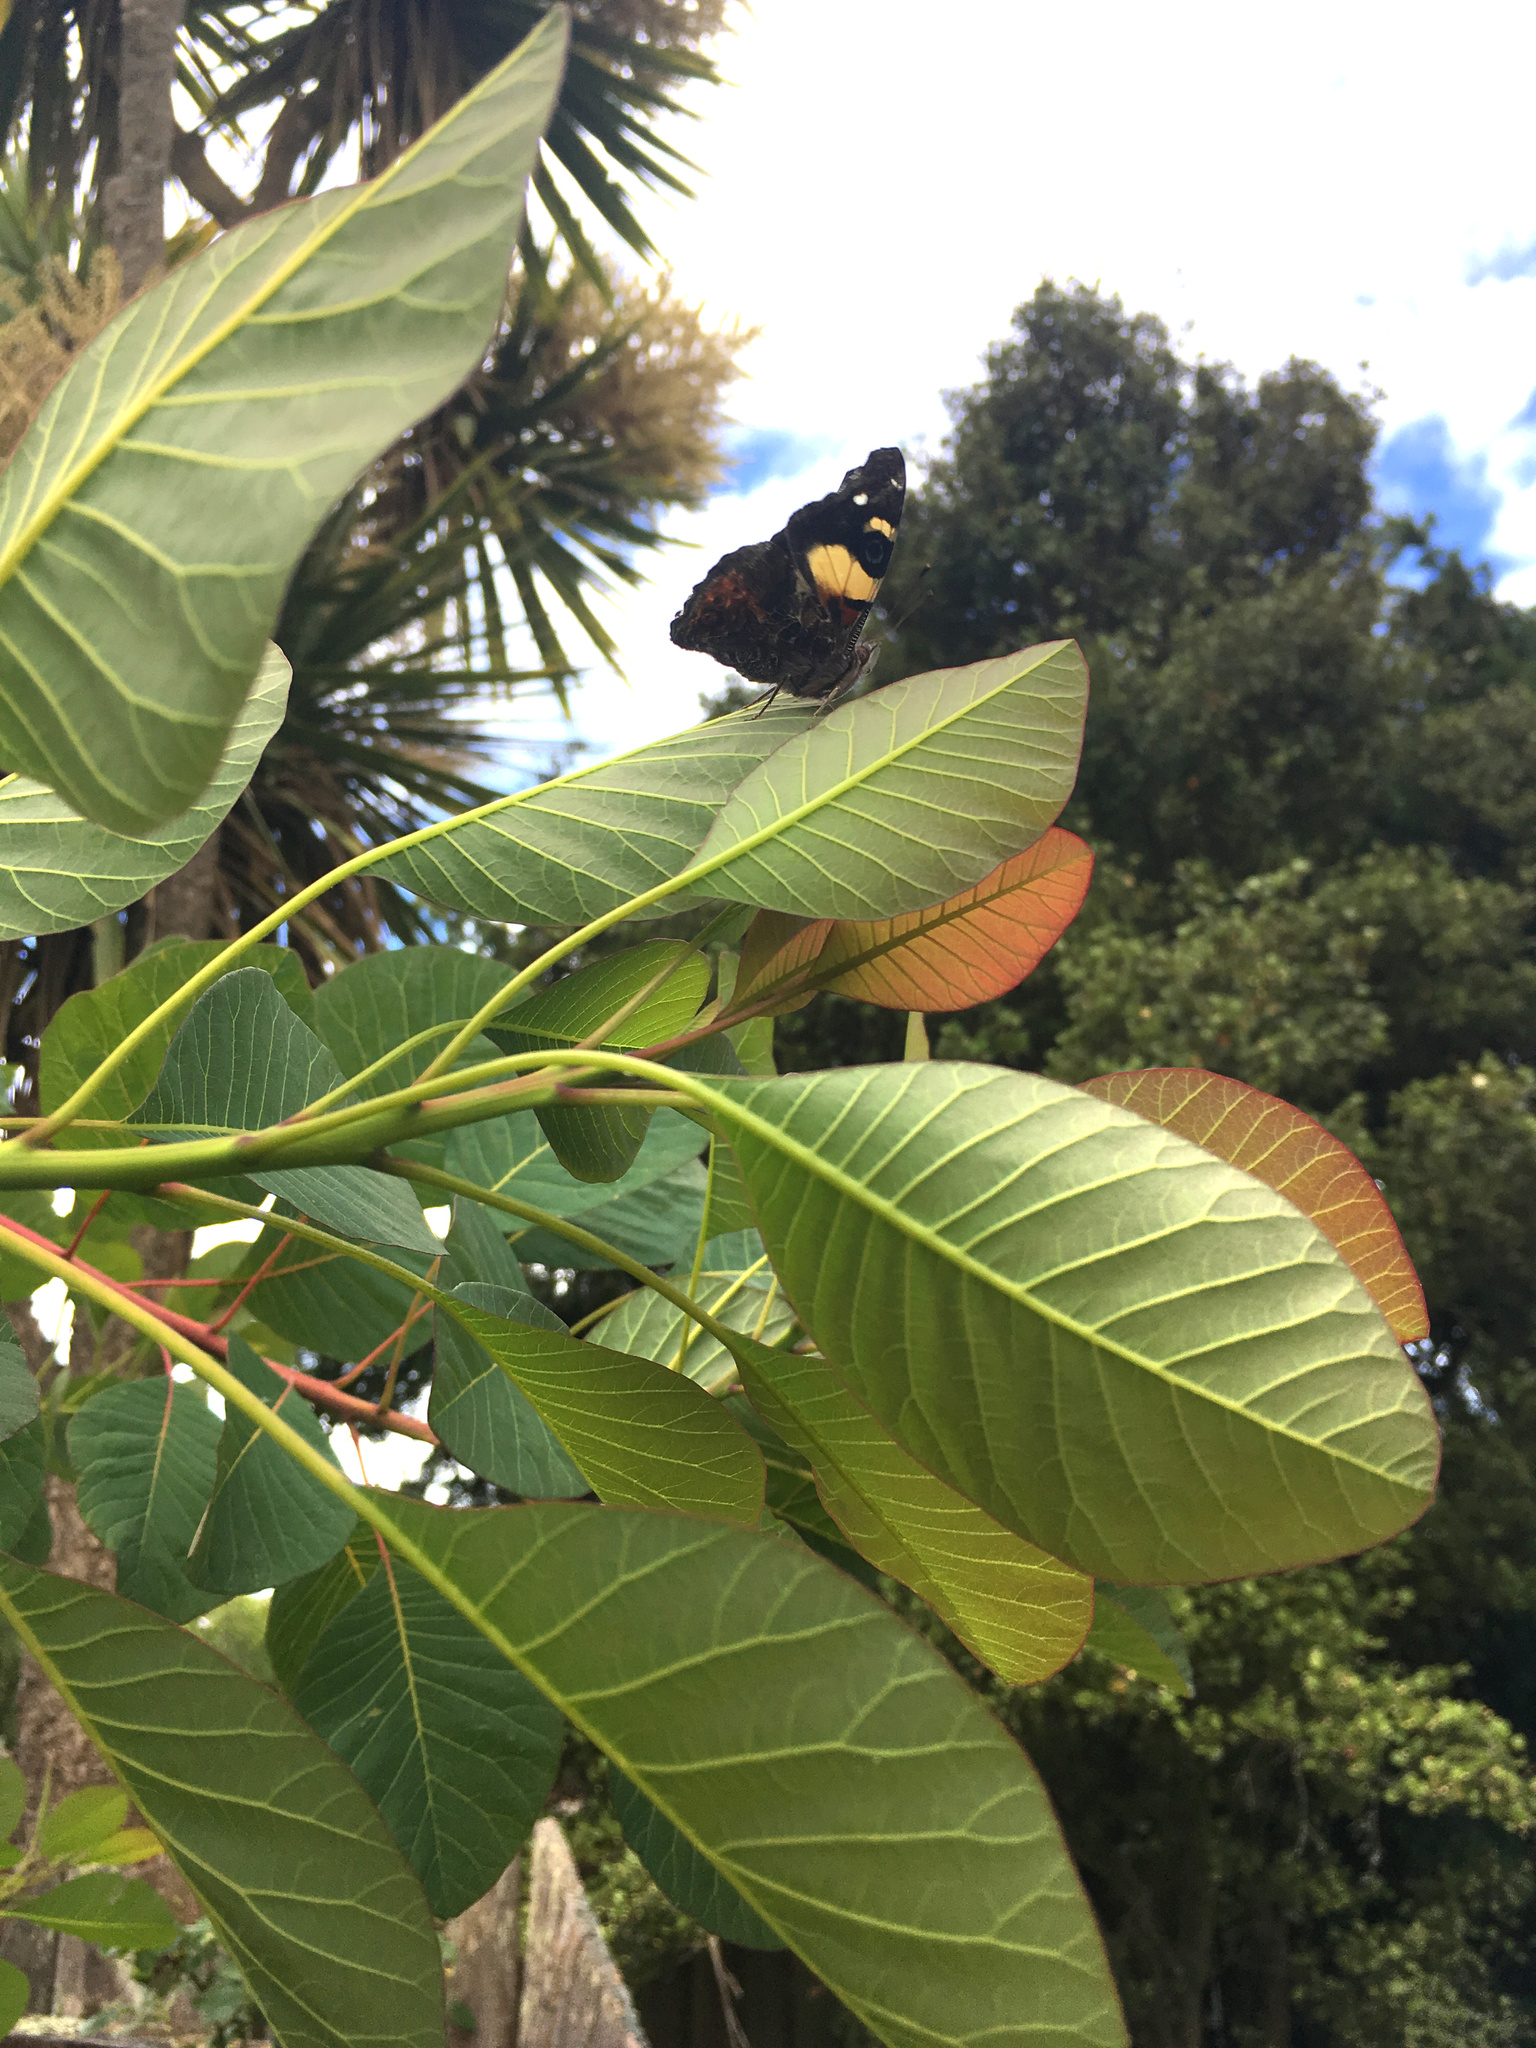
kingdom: Animalia
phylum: Arthropoda
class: Insecta
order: Lepidoptera
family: Nymphalidae
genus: Vanessa
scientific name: Vanessa itea
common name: Yellow admiral
